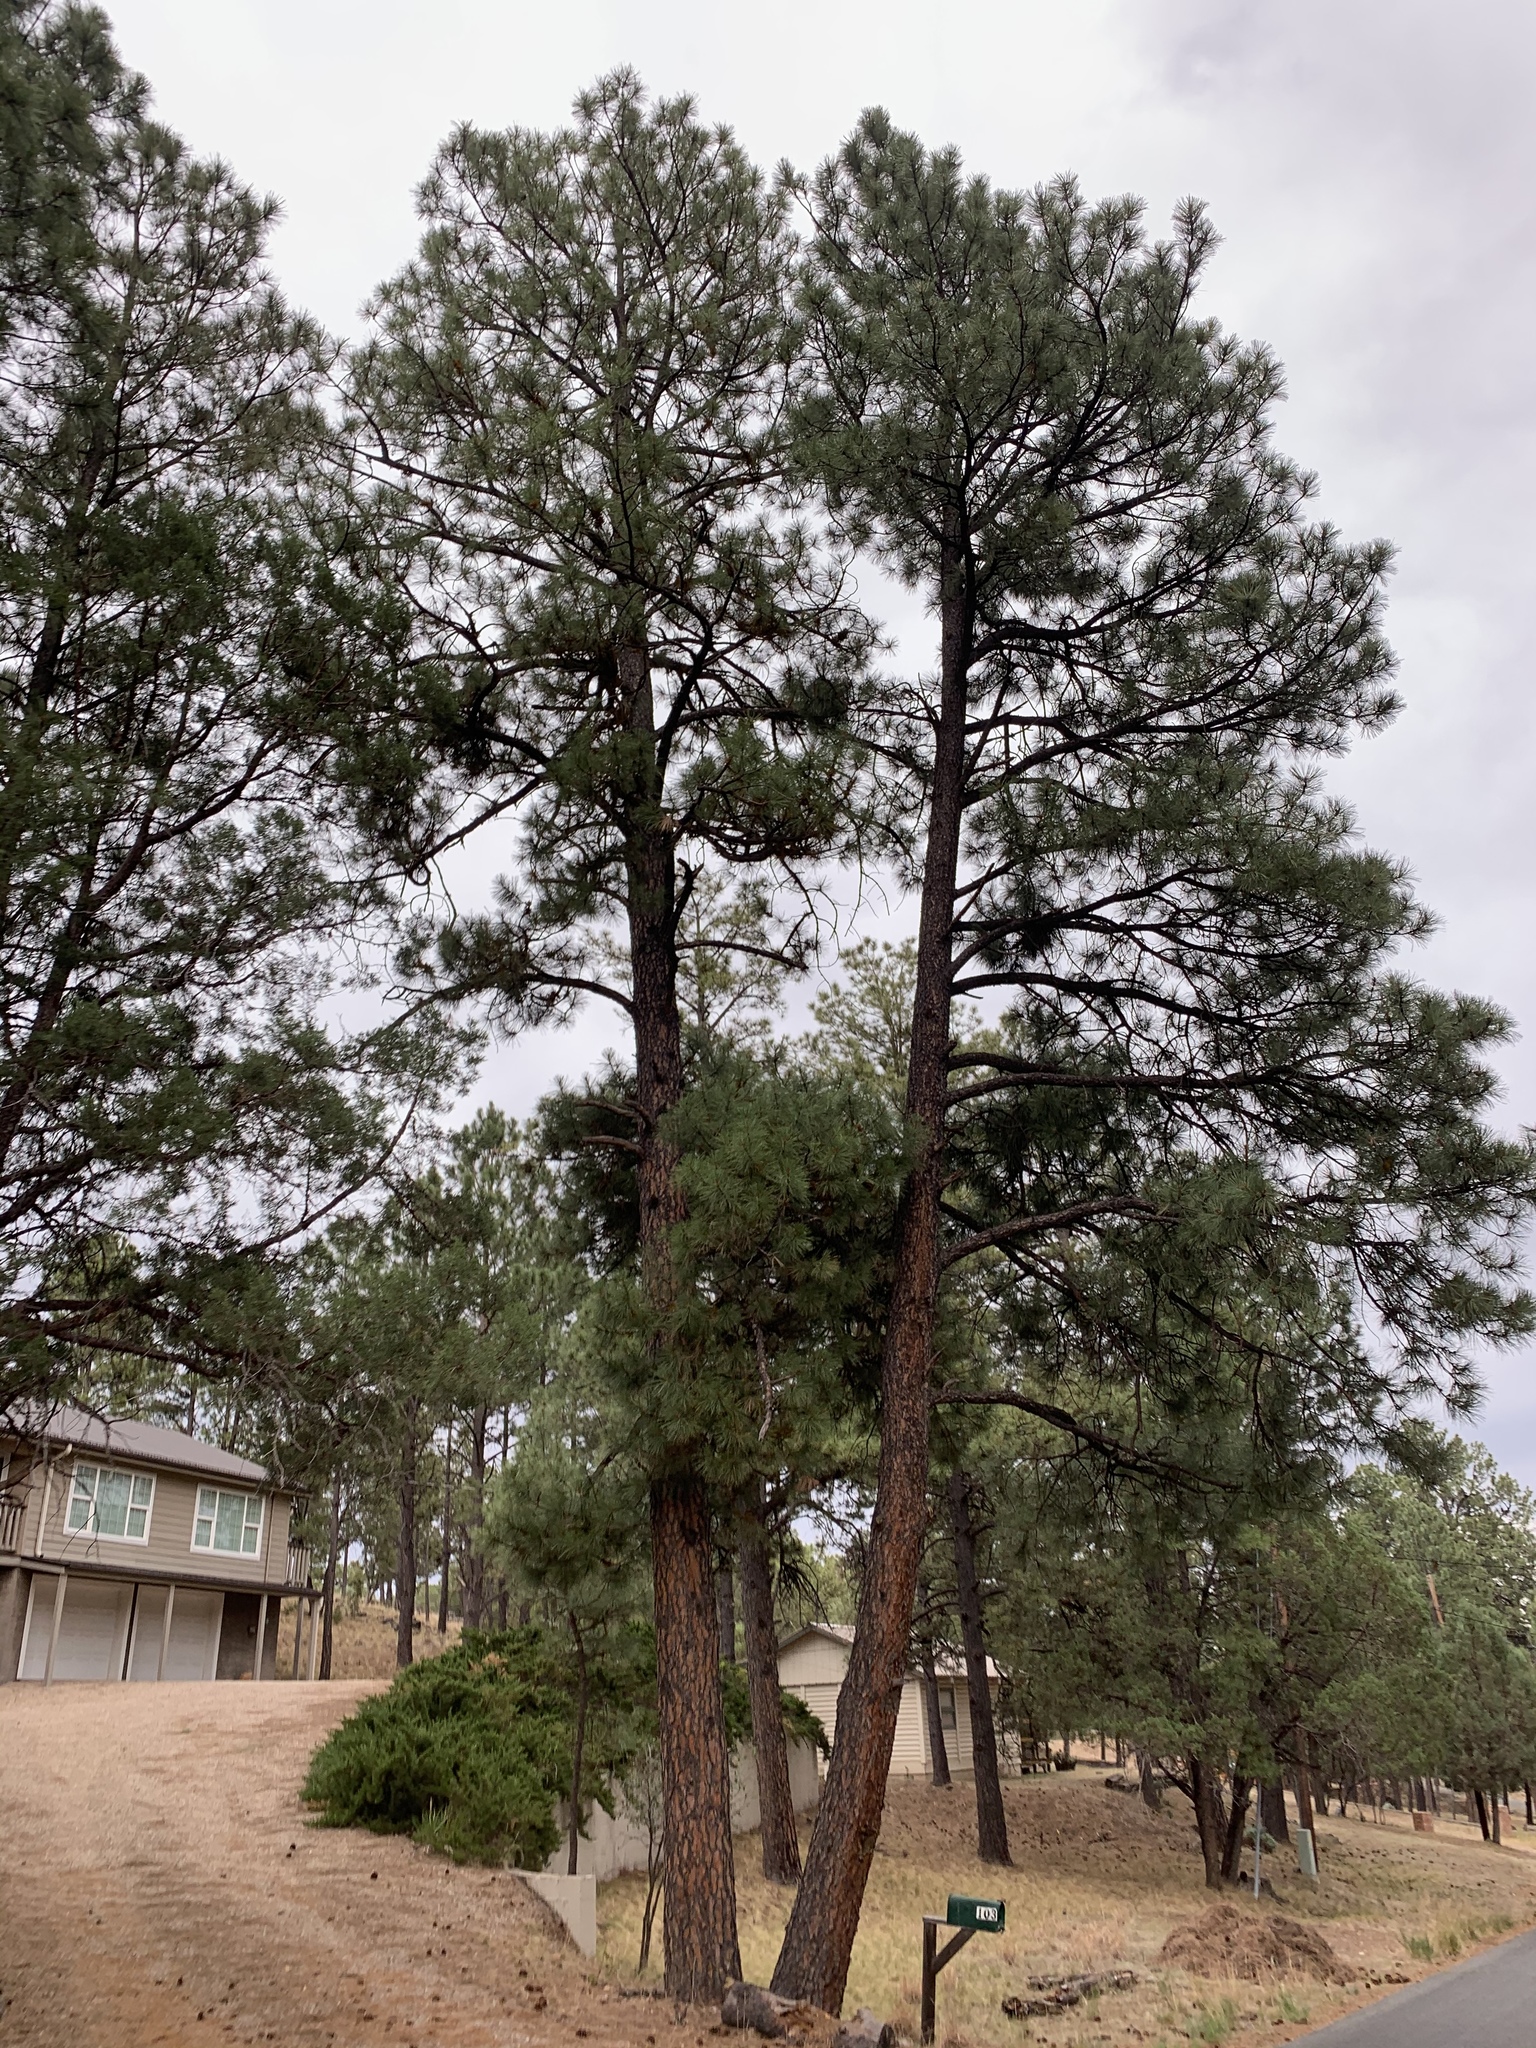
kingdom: Plantae
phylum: Tracheophyta
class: Pinopsida
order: Pinales
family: Pinaceae
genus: Pinus
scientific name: Pinus ponderosa
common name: Western yellow-pine
